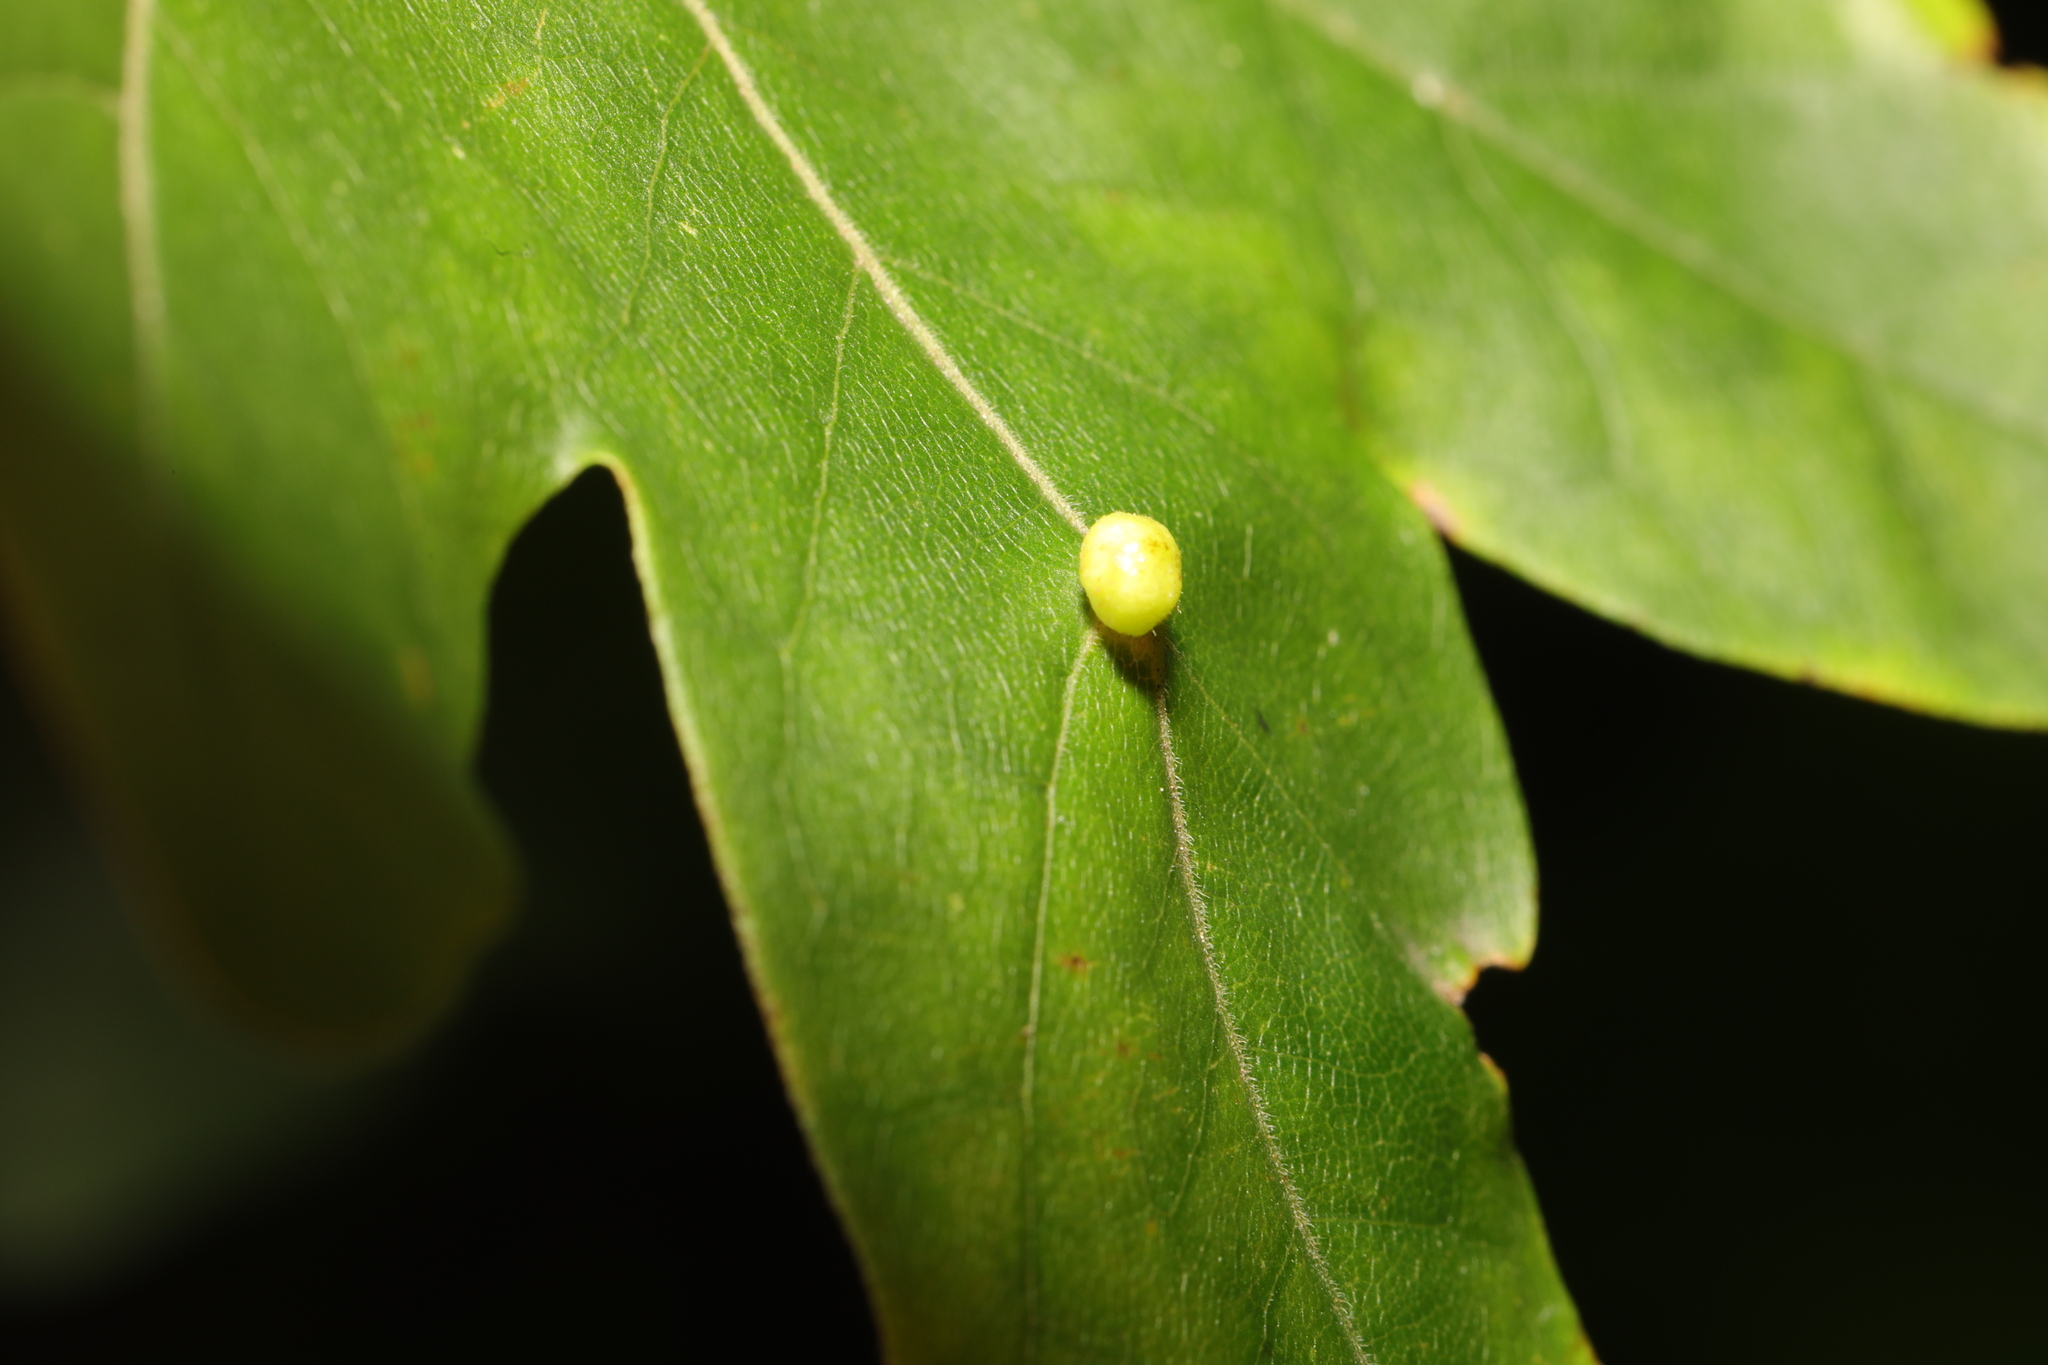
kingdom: Animalia
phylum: Arthropoda
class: Arachnida
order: Trombidiformes
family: Eriophyidae
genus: Aceria
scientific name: Aceria macrochelus
